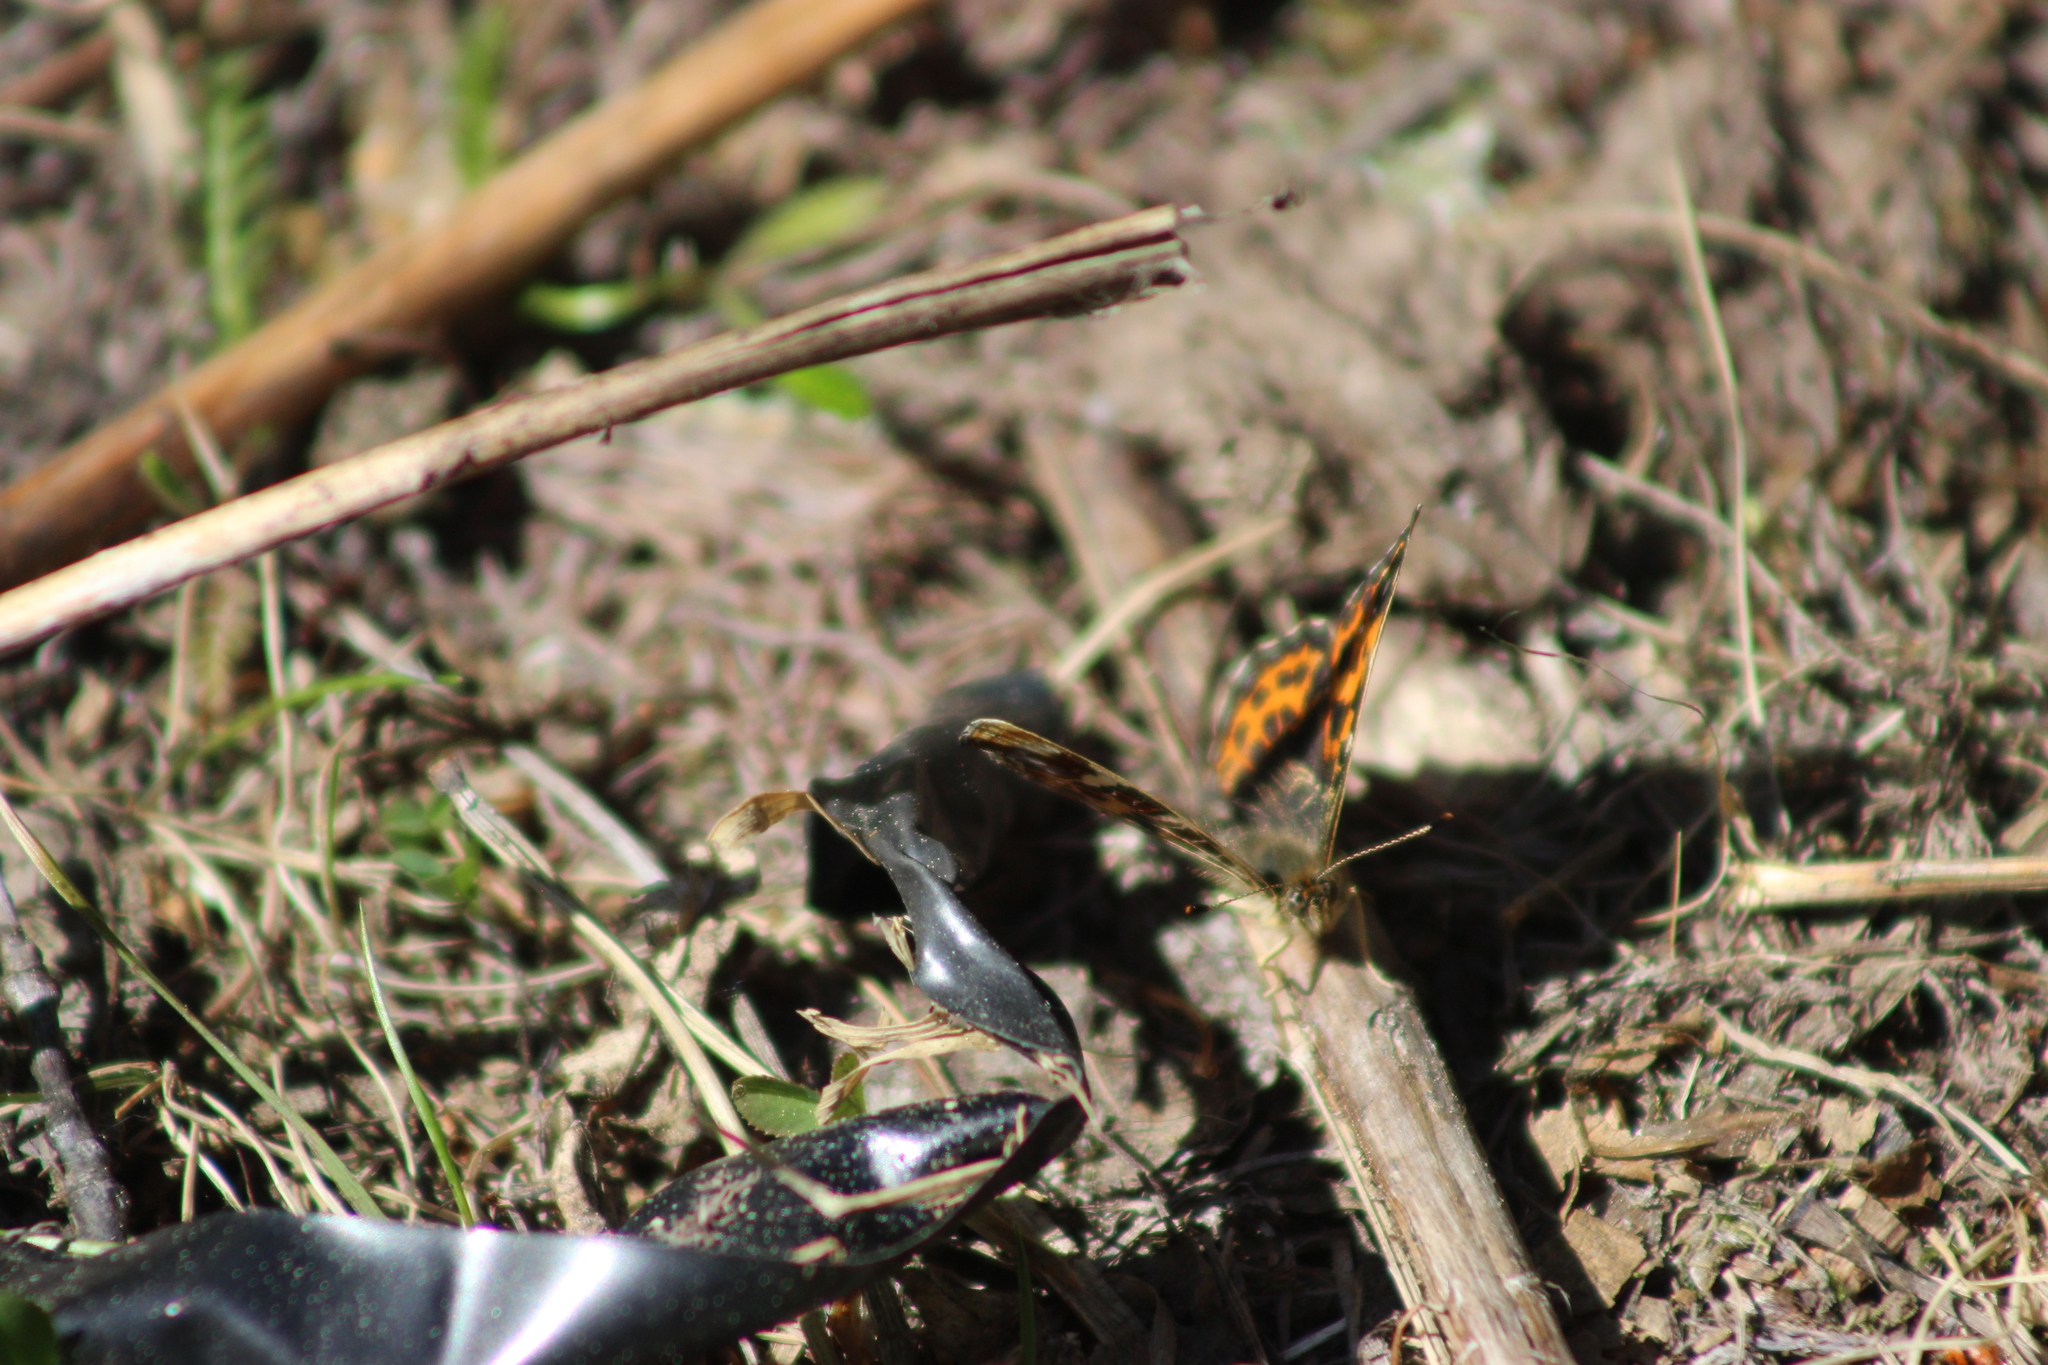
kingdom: Animalia
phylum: Arthropoda
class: Insecta
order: Lepidoptera
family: Nymphalidae
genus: Araschnia
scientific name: Araschnia levana
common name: Map butterfly
